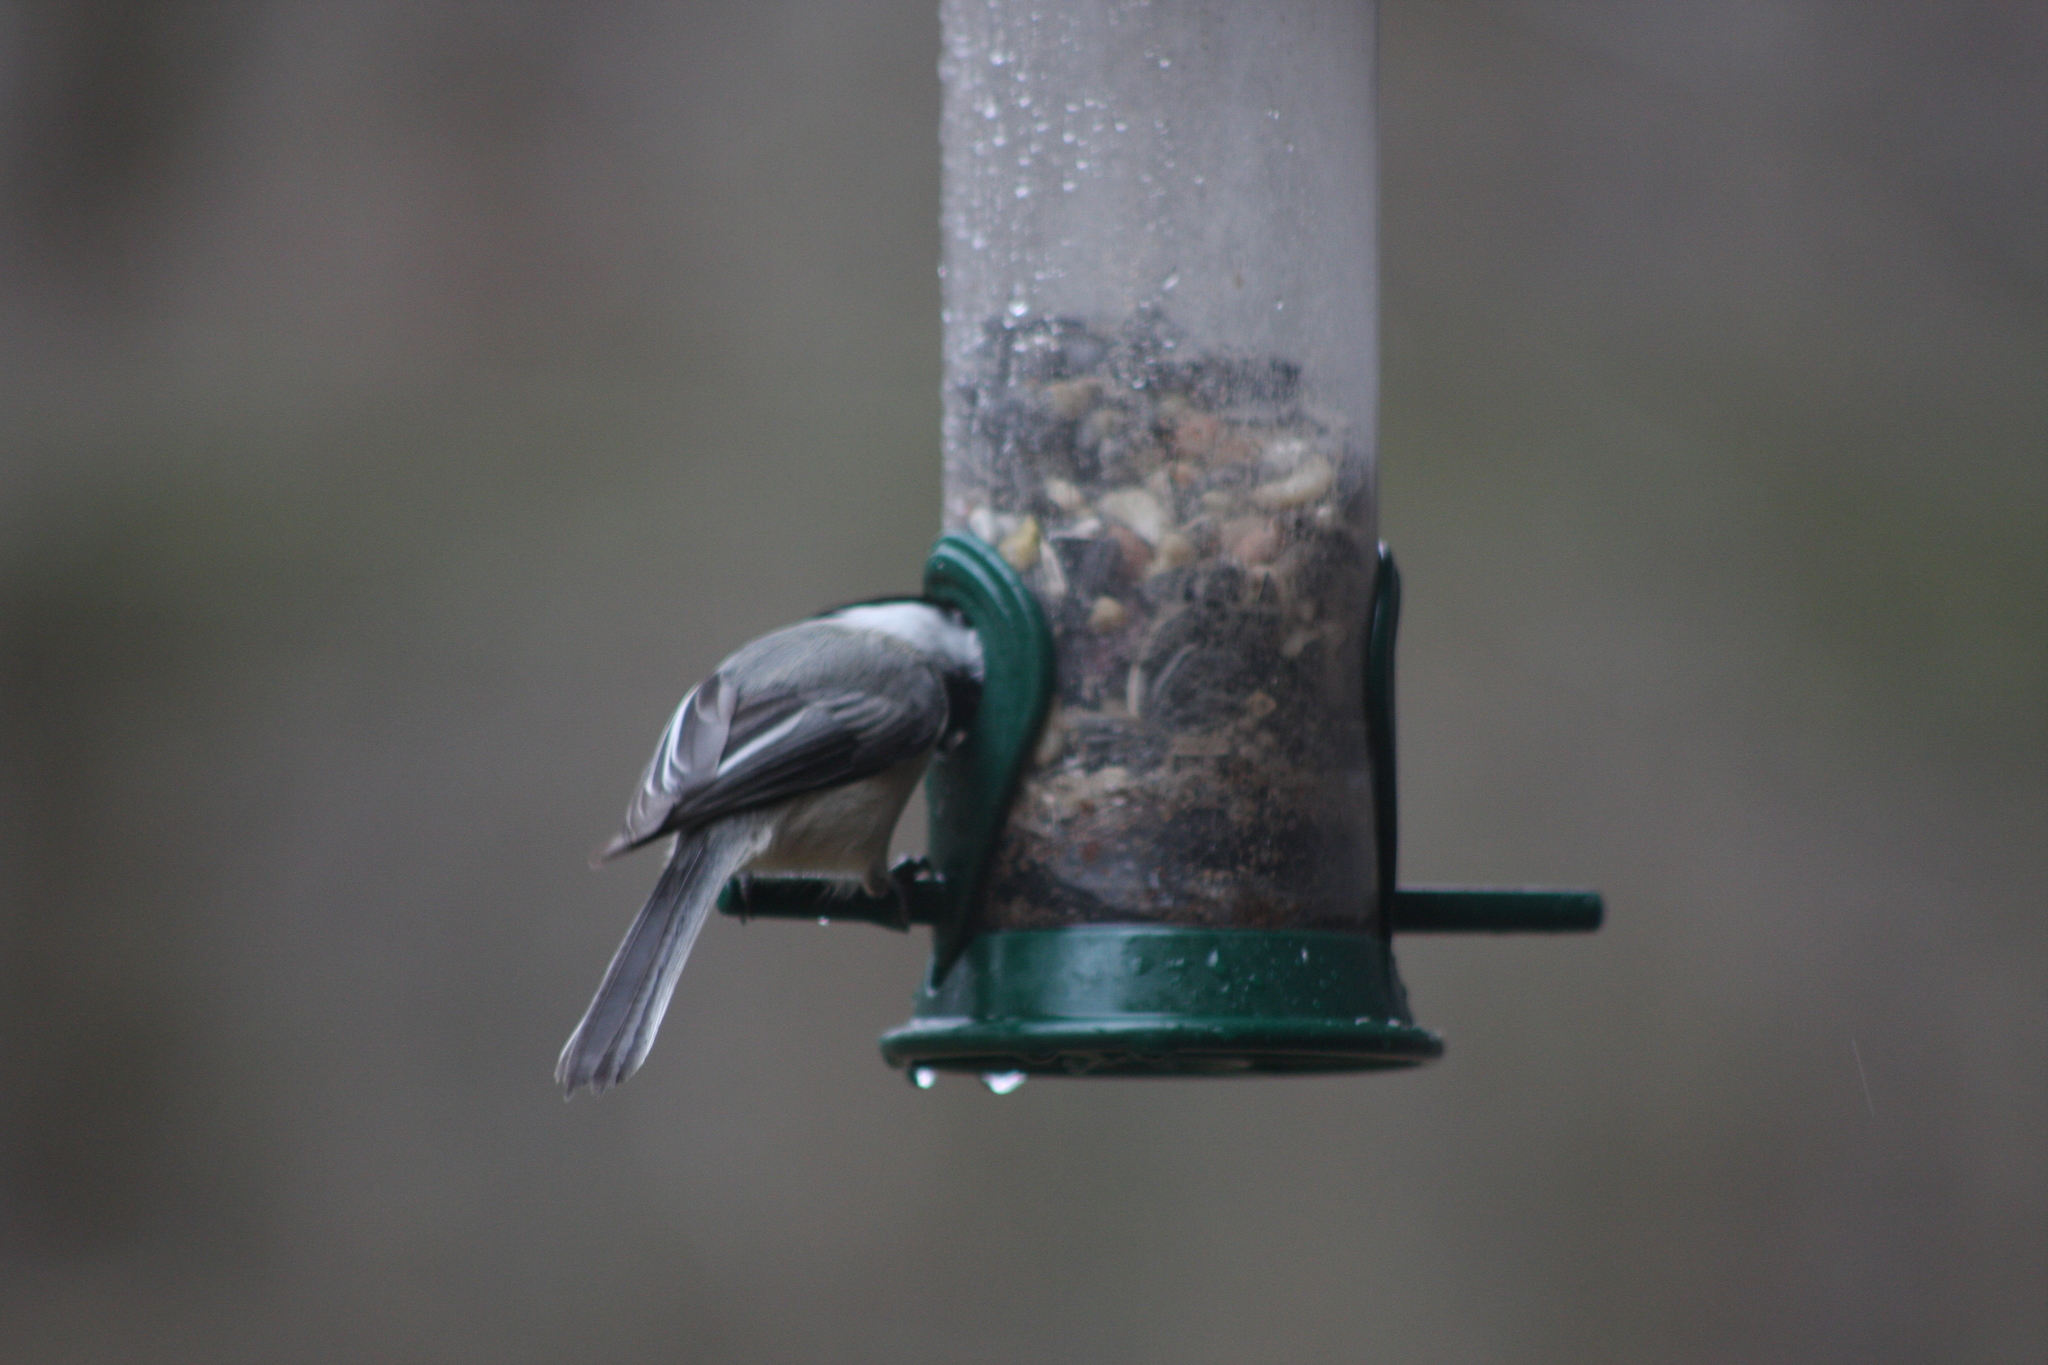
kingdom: Animalia
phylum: Chordata
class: Aves
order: Passeriformes
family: Paridae
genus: Poecile
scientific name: Poecile atricapillus
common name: Black-capped chickadee
